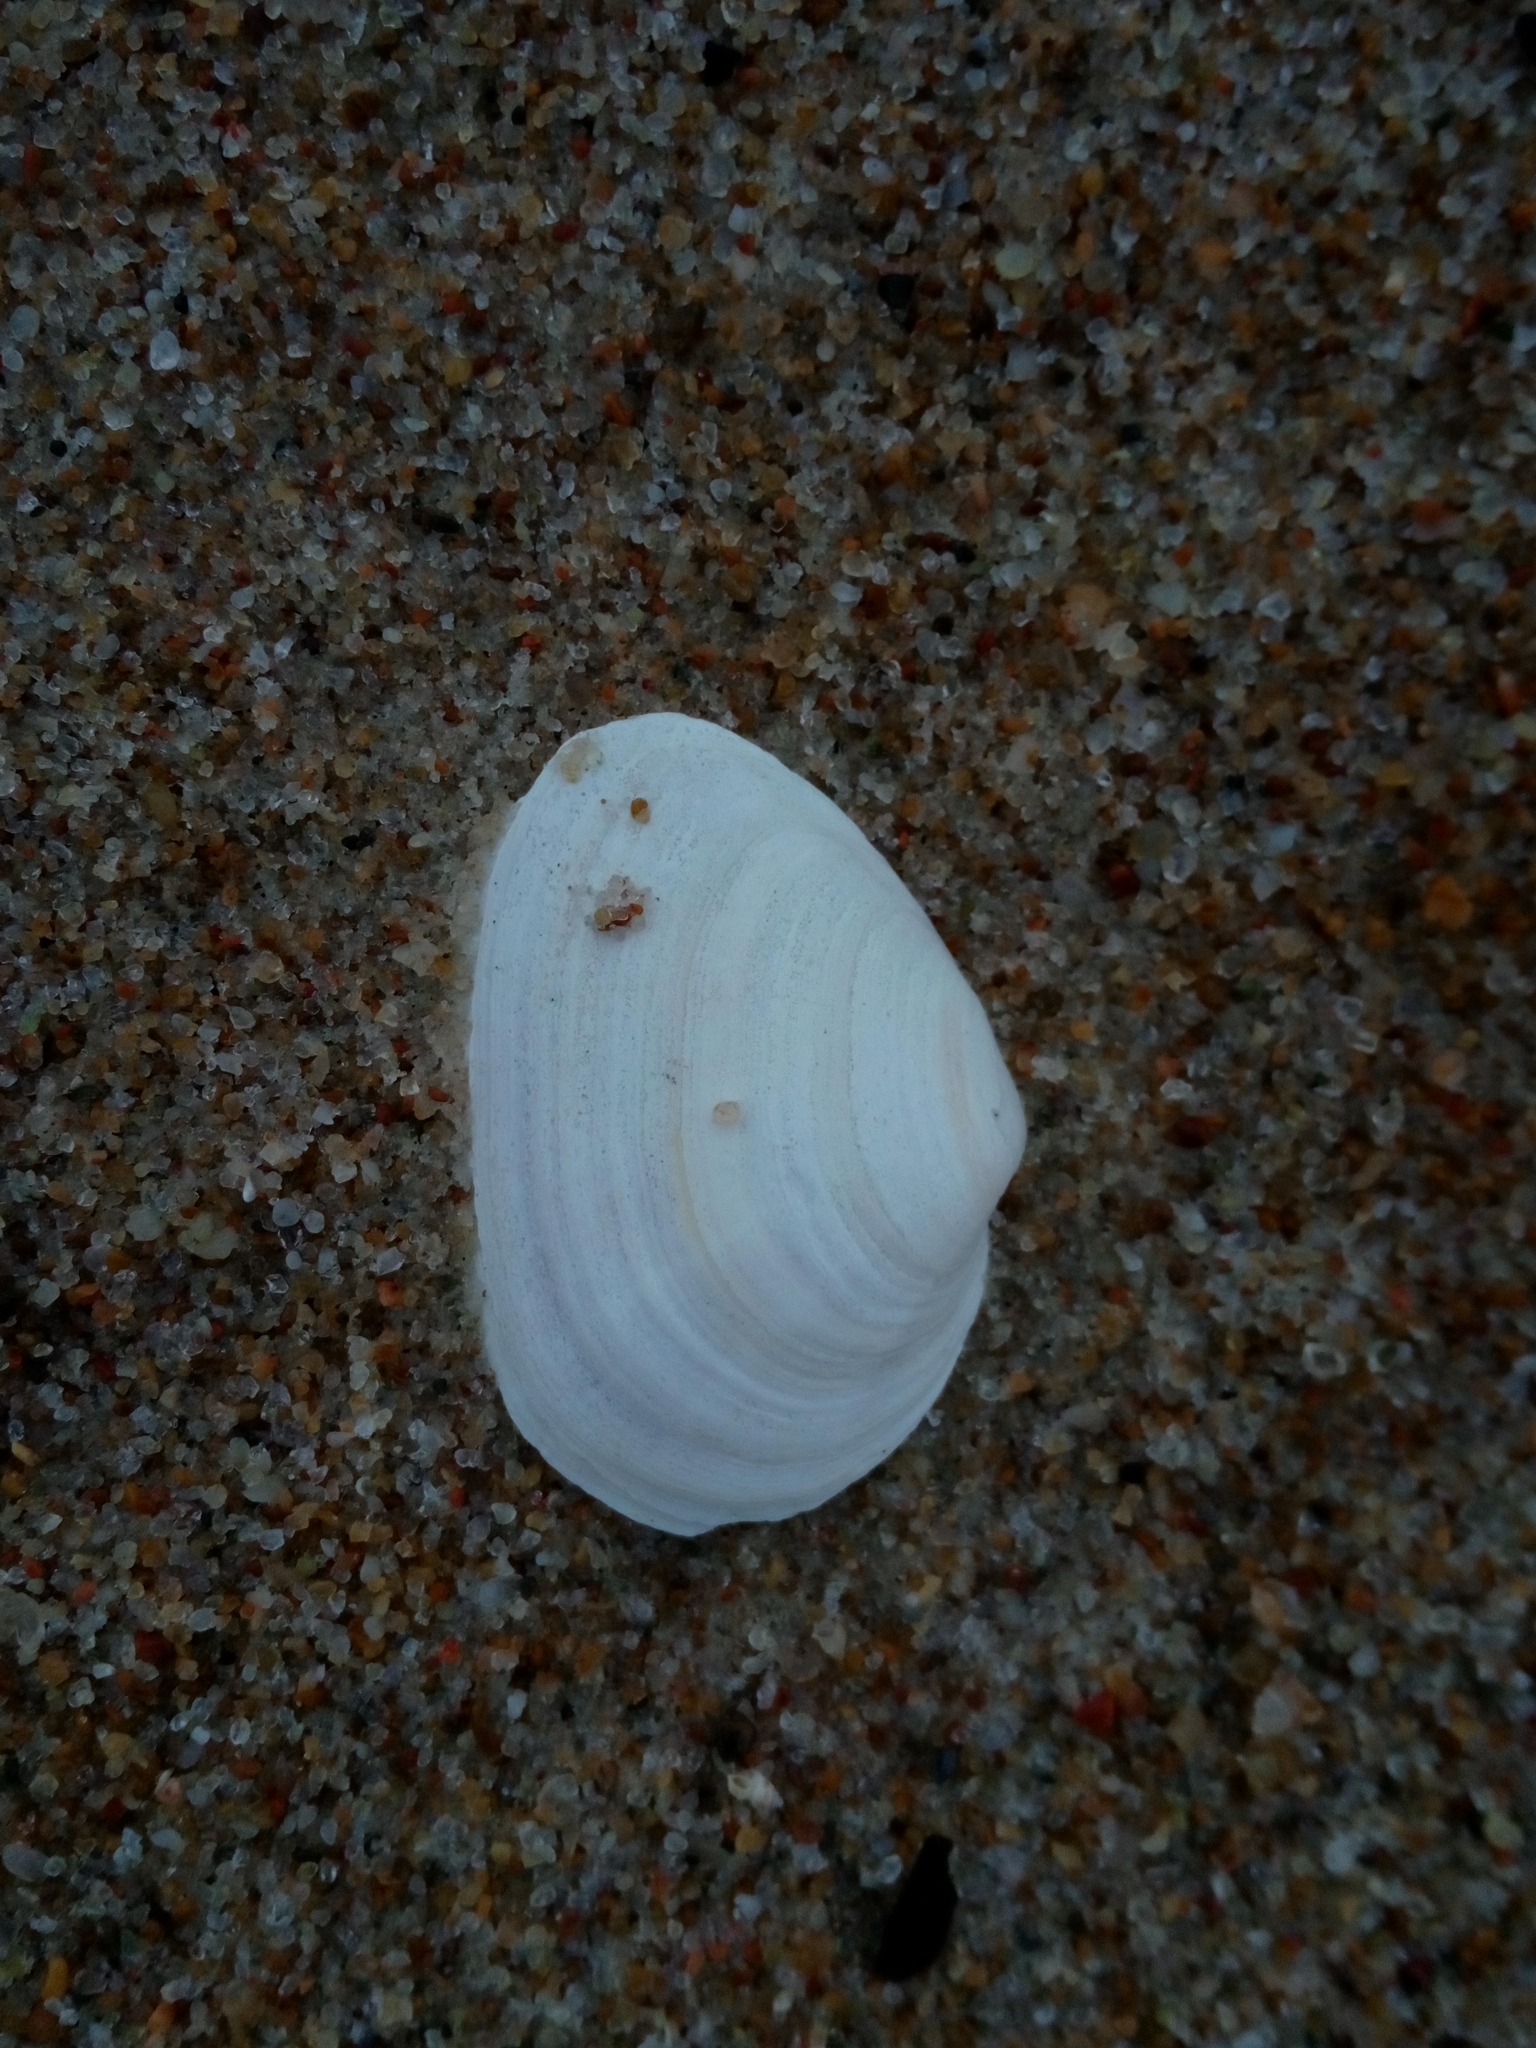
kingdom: Animalia
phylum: Mollusca
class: Bivalvia
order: Myida
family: Myidae
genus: Mya
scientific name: Mya arenaria
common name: Soft-shelled clam
